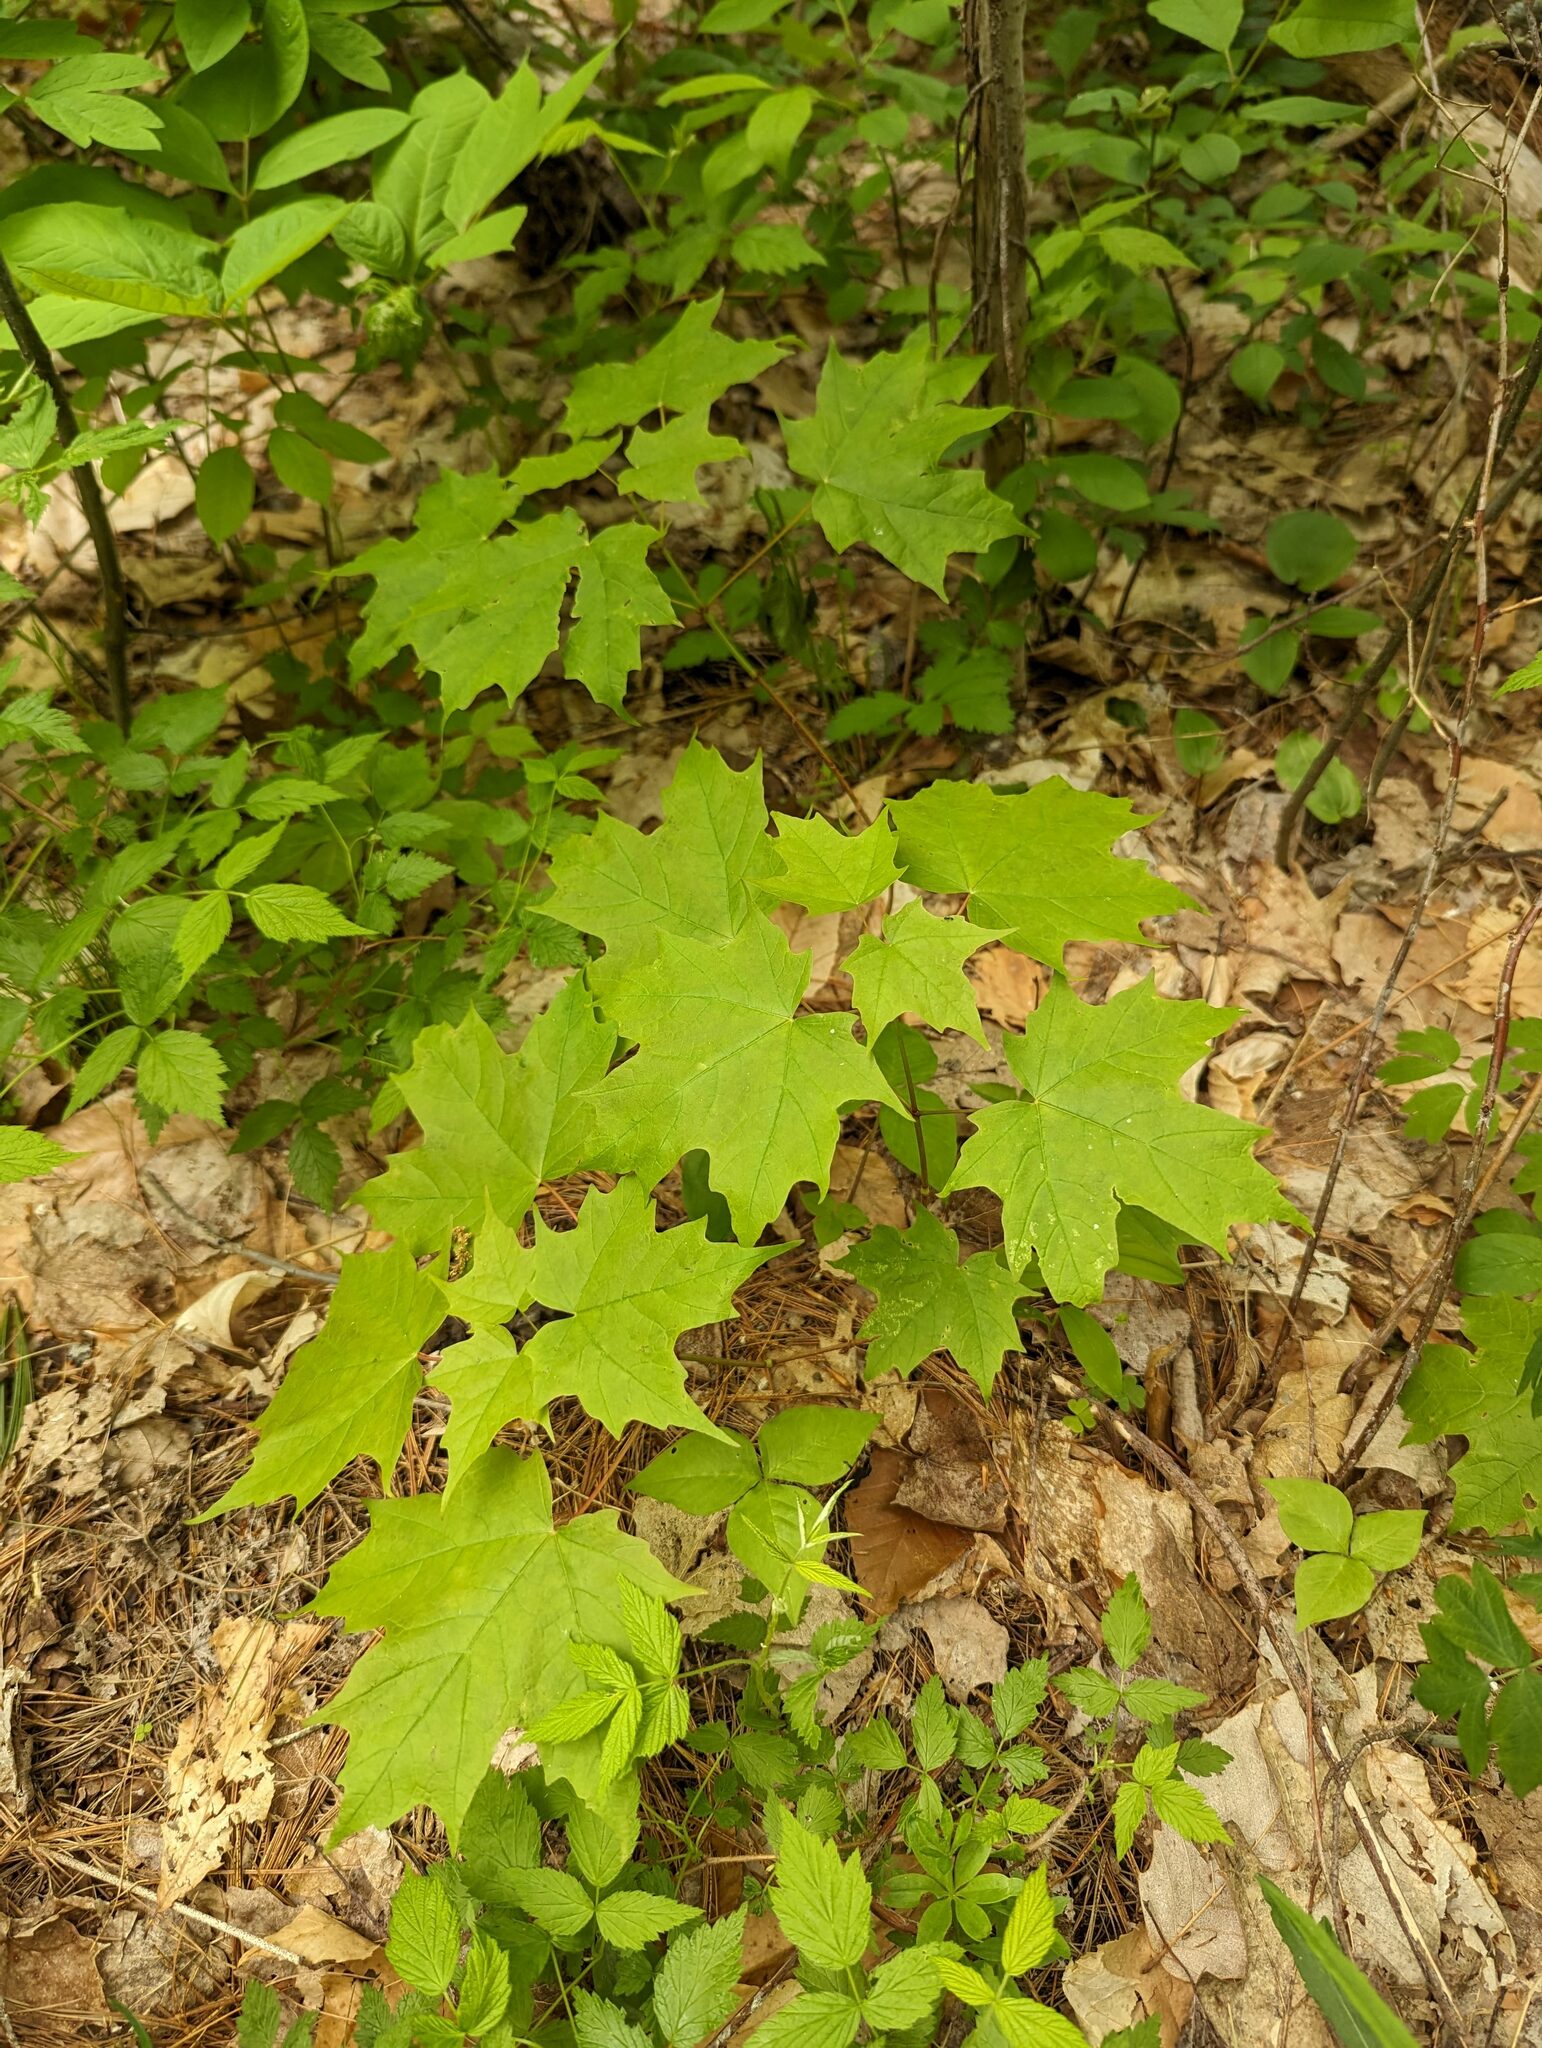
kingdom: Plantae
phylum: Tracheophyta
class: Magnoliopsida
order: Sapindales
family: Sapindaceae
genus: Acer
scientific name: Acer saccharum
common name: Sugar maple
